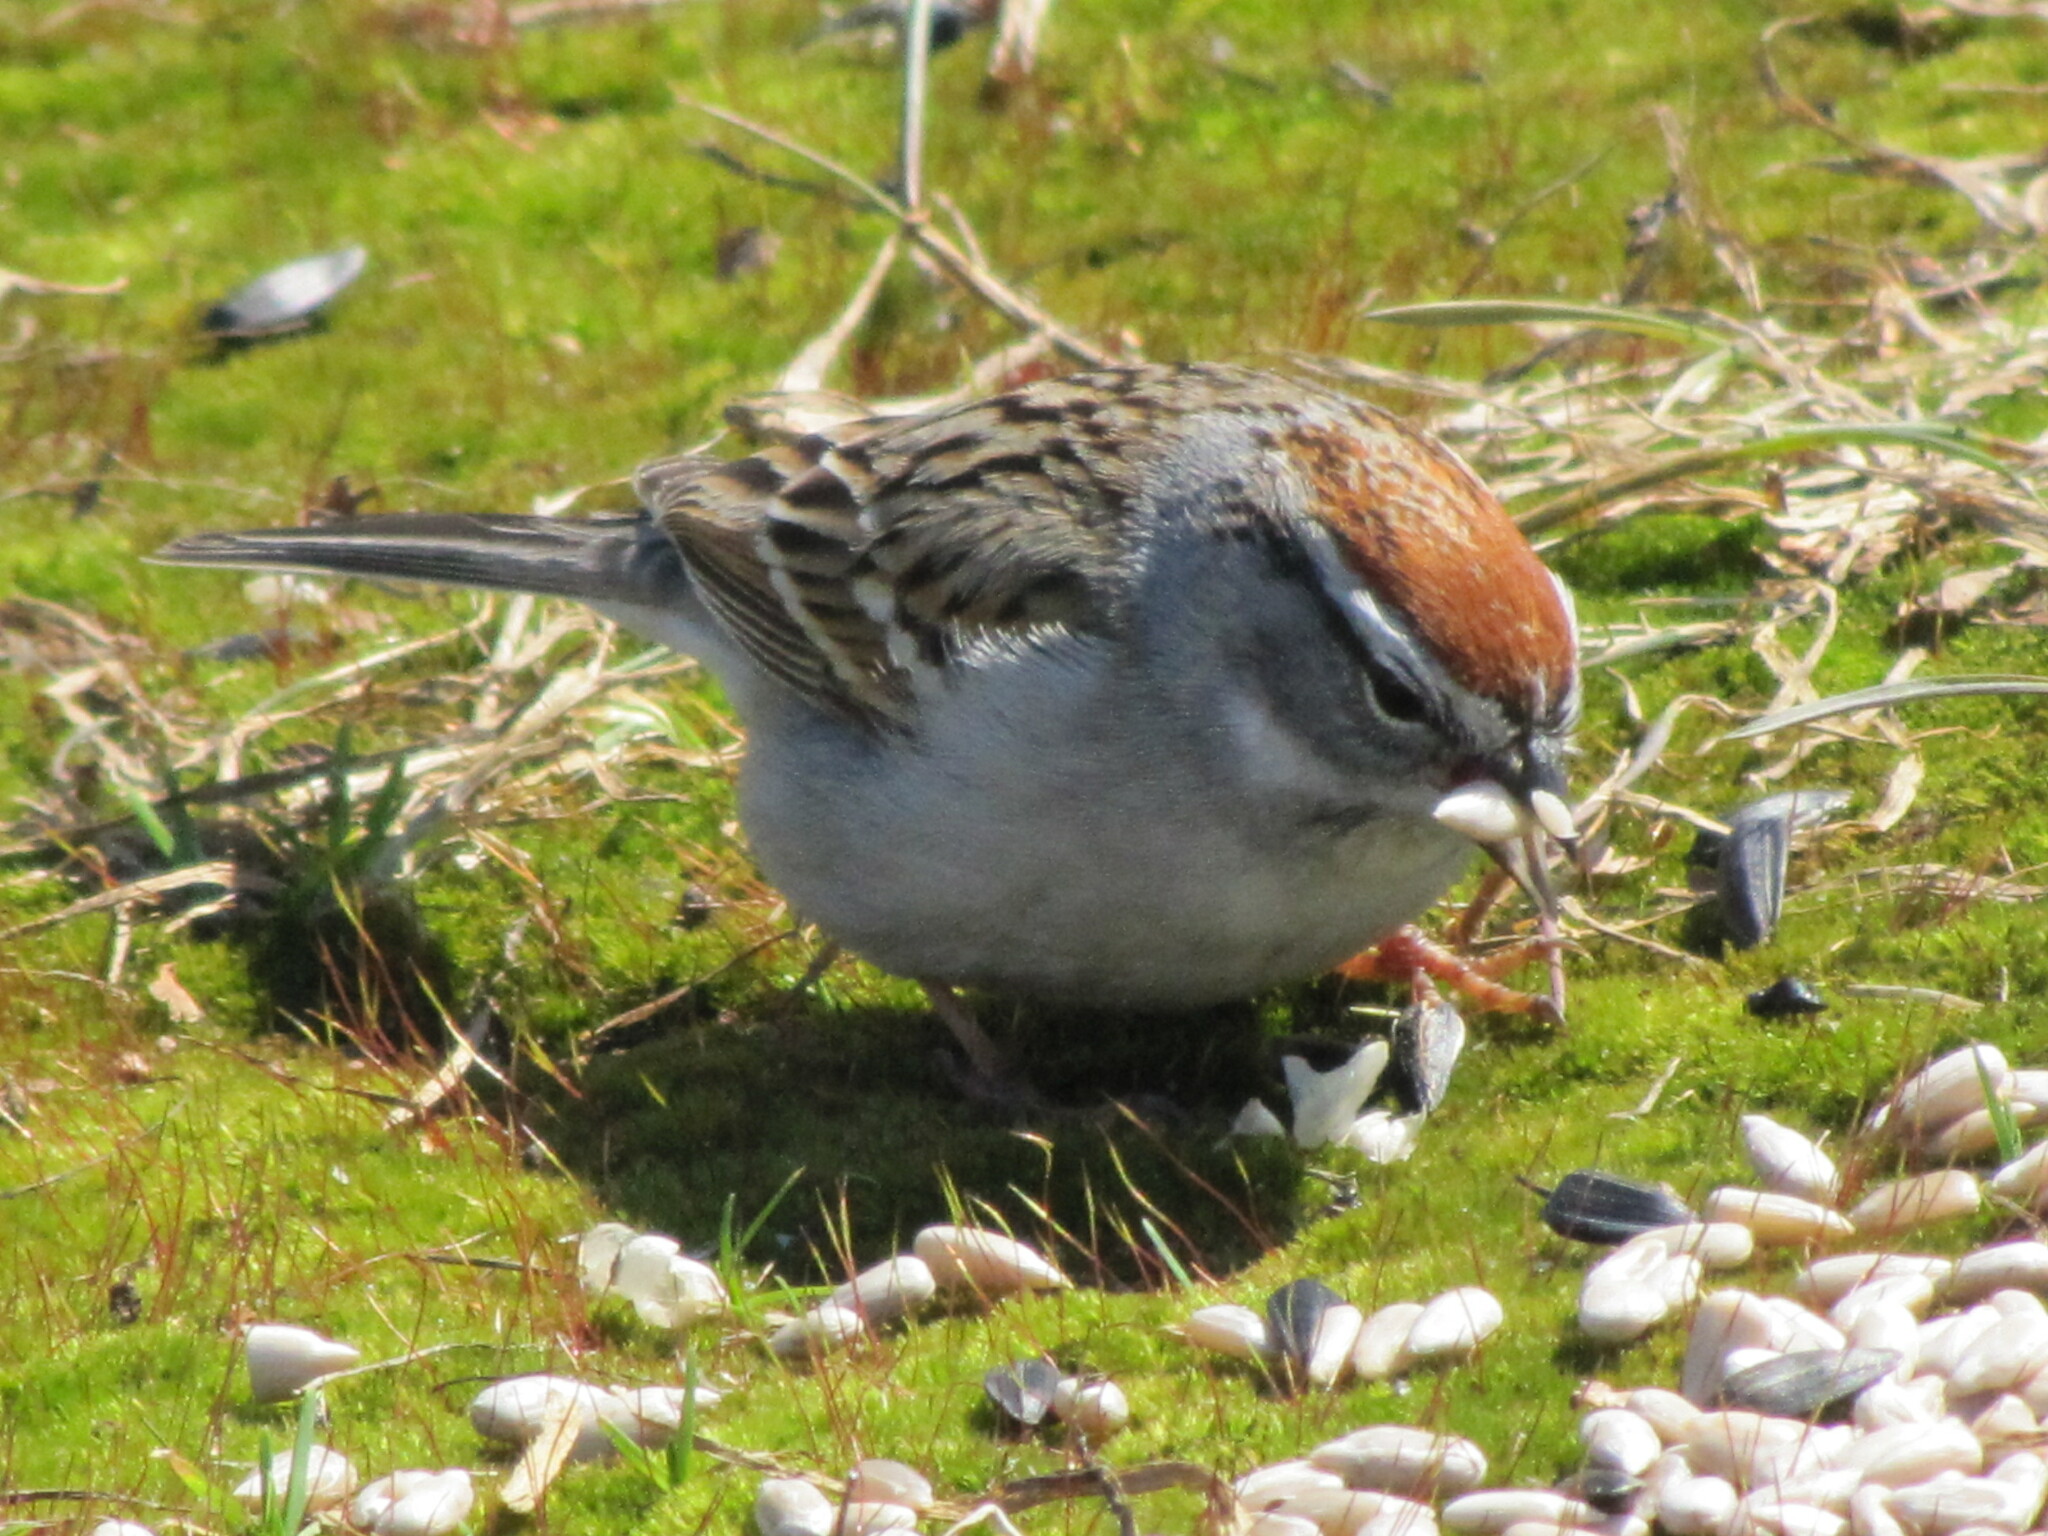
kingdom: Animalia
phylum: Chordata
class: Aves
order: Passeriformes
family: Passerellidae
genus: Spizella
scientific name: Spizella passerina
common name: Chipping sparrow
